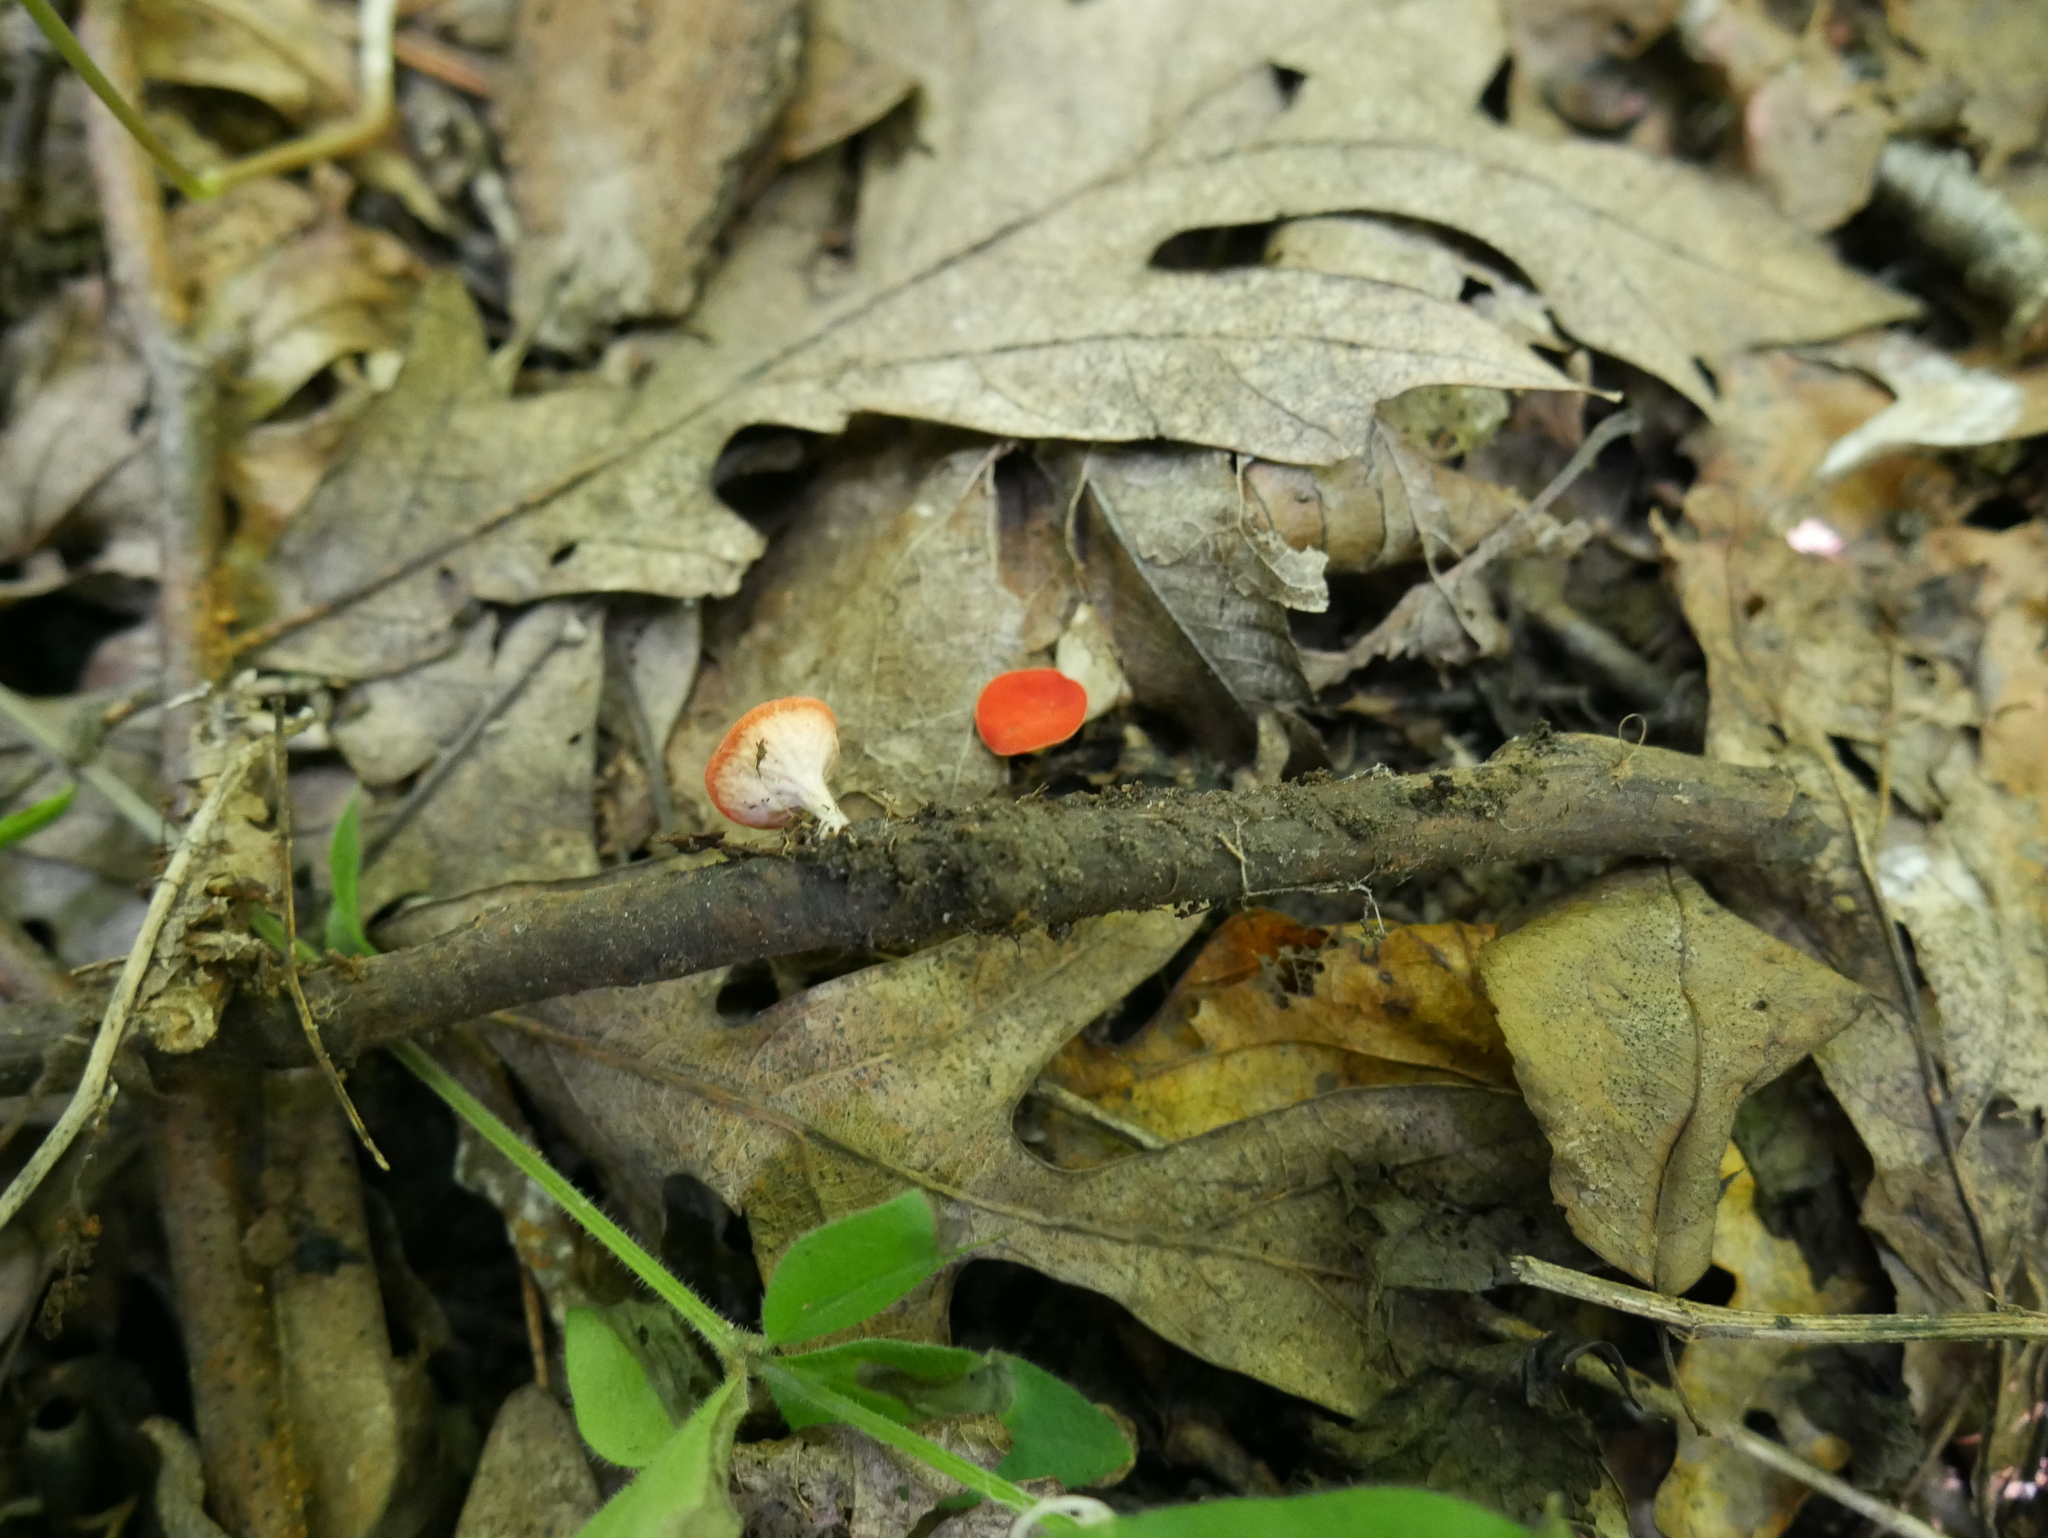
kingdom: Fungi
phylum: Ascomycota
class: Pezizomycetes
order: Pezizales
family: Sarcoscyphaceae
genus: Sarcoscypha
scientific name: Sarcoscypha occidentalis
